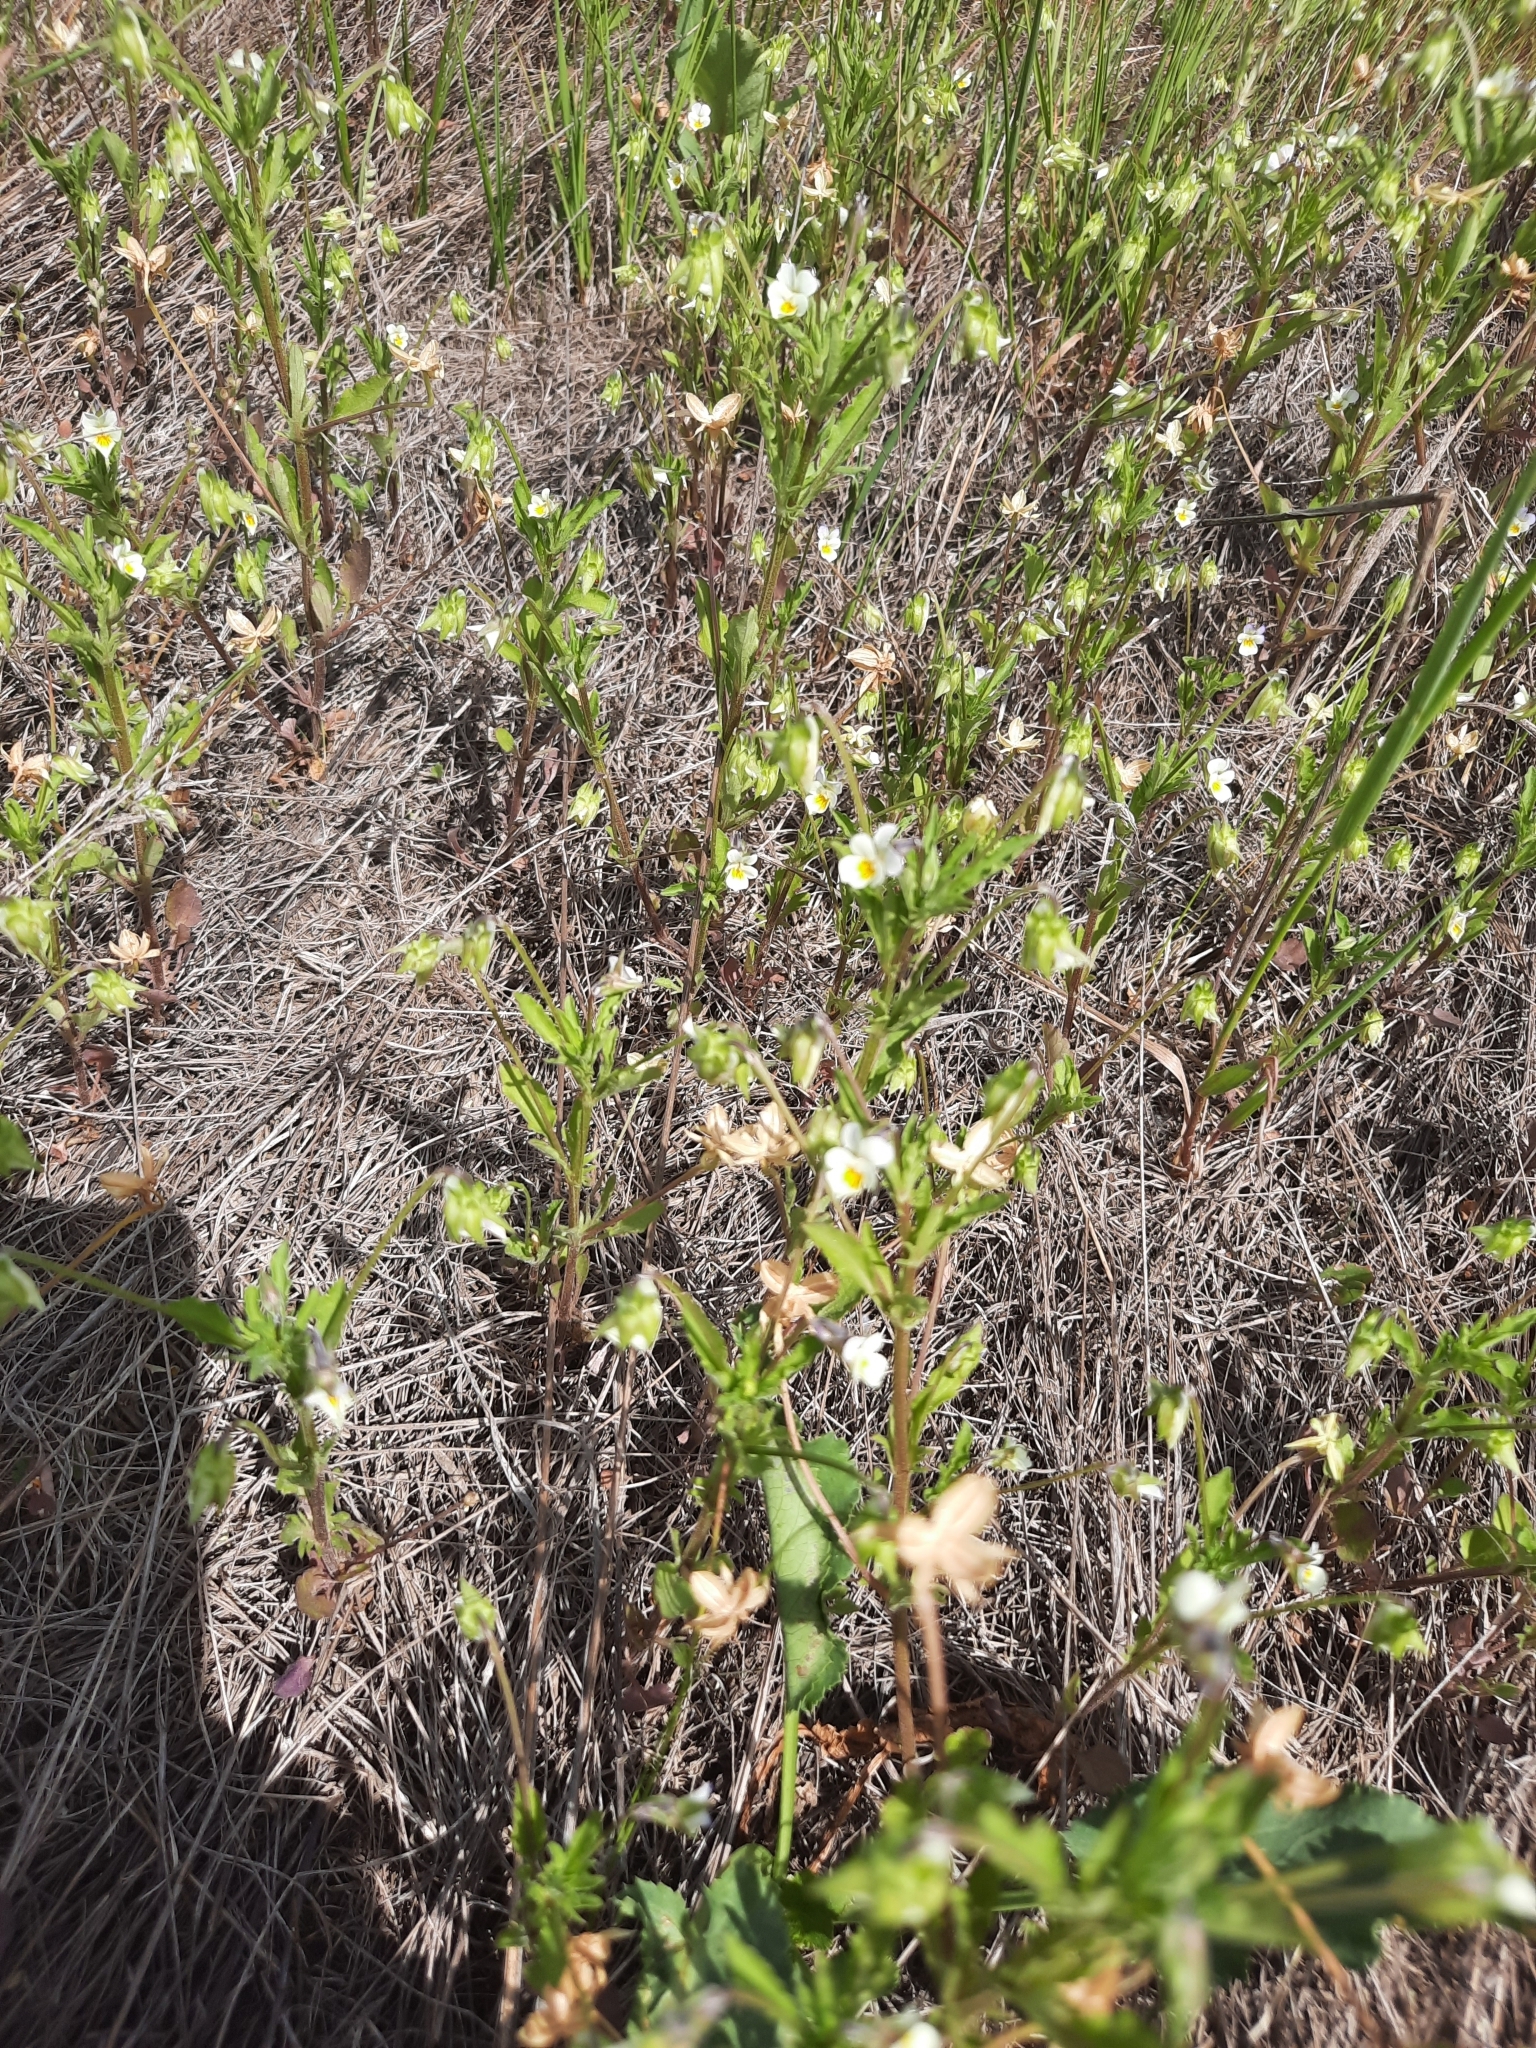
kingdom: Plantae
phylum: Tracheophyta
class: Magnoliopsida
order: Malpighiales
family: Violaceae
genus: Viola
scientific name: Viola arvensis
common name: Field pansy
